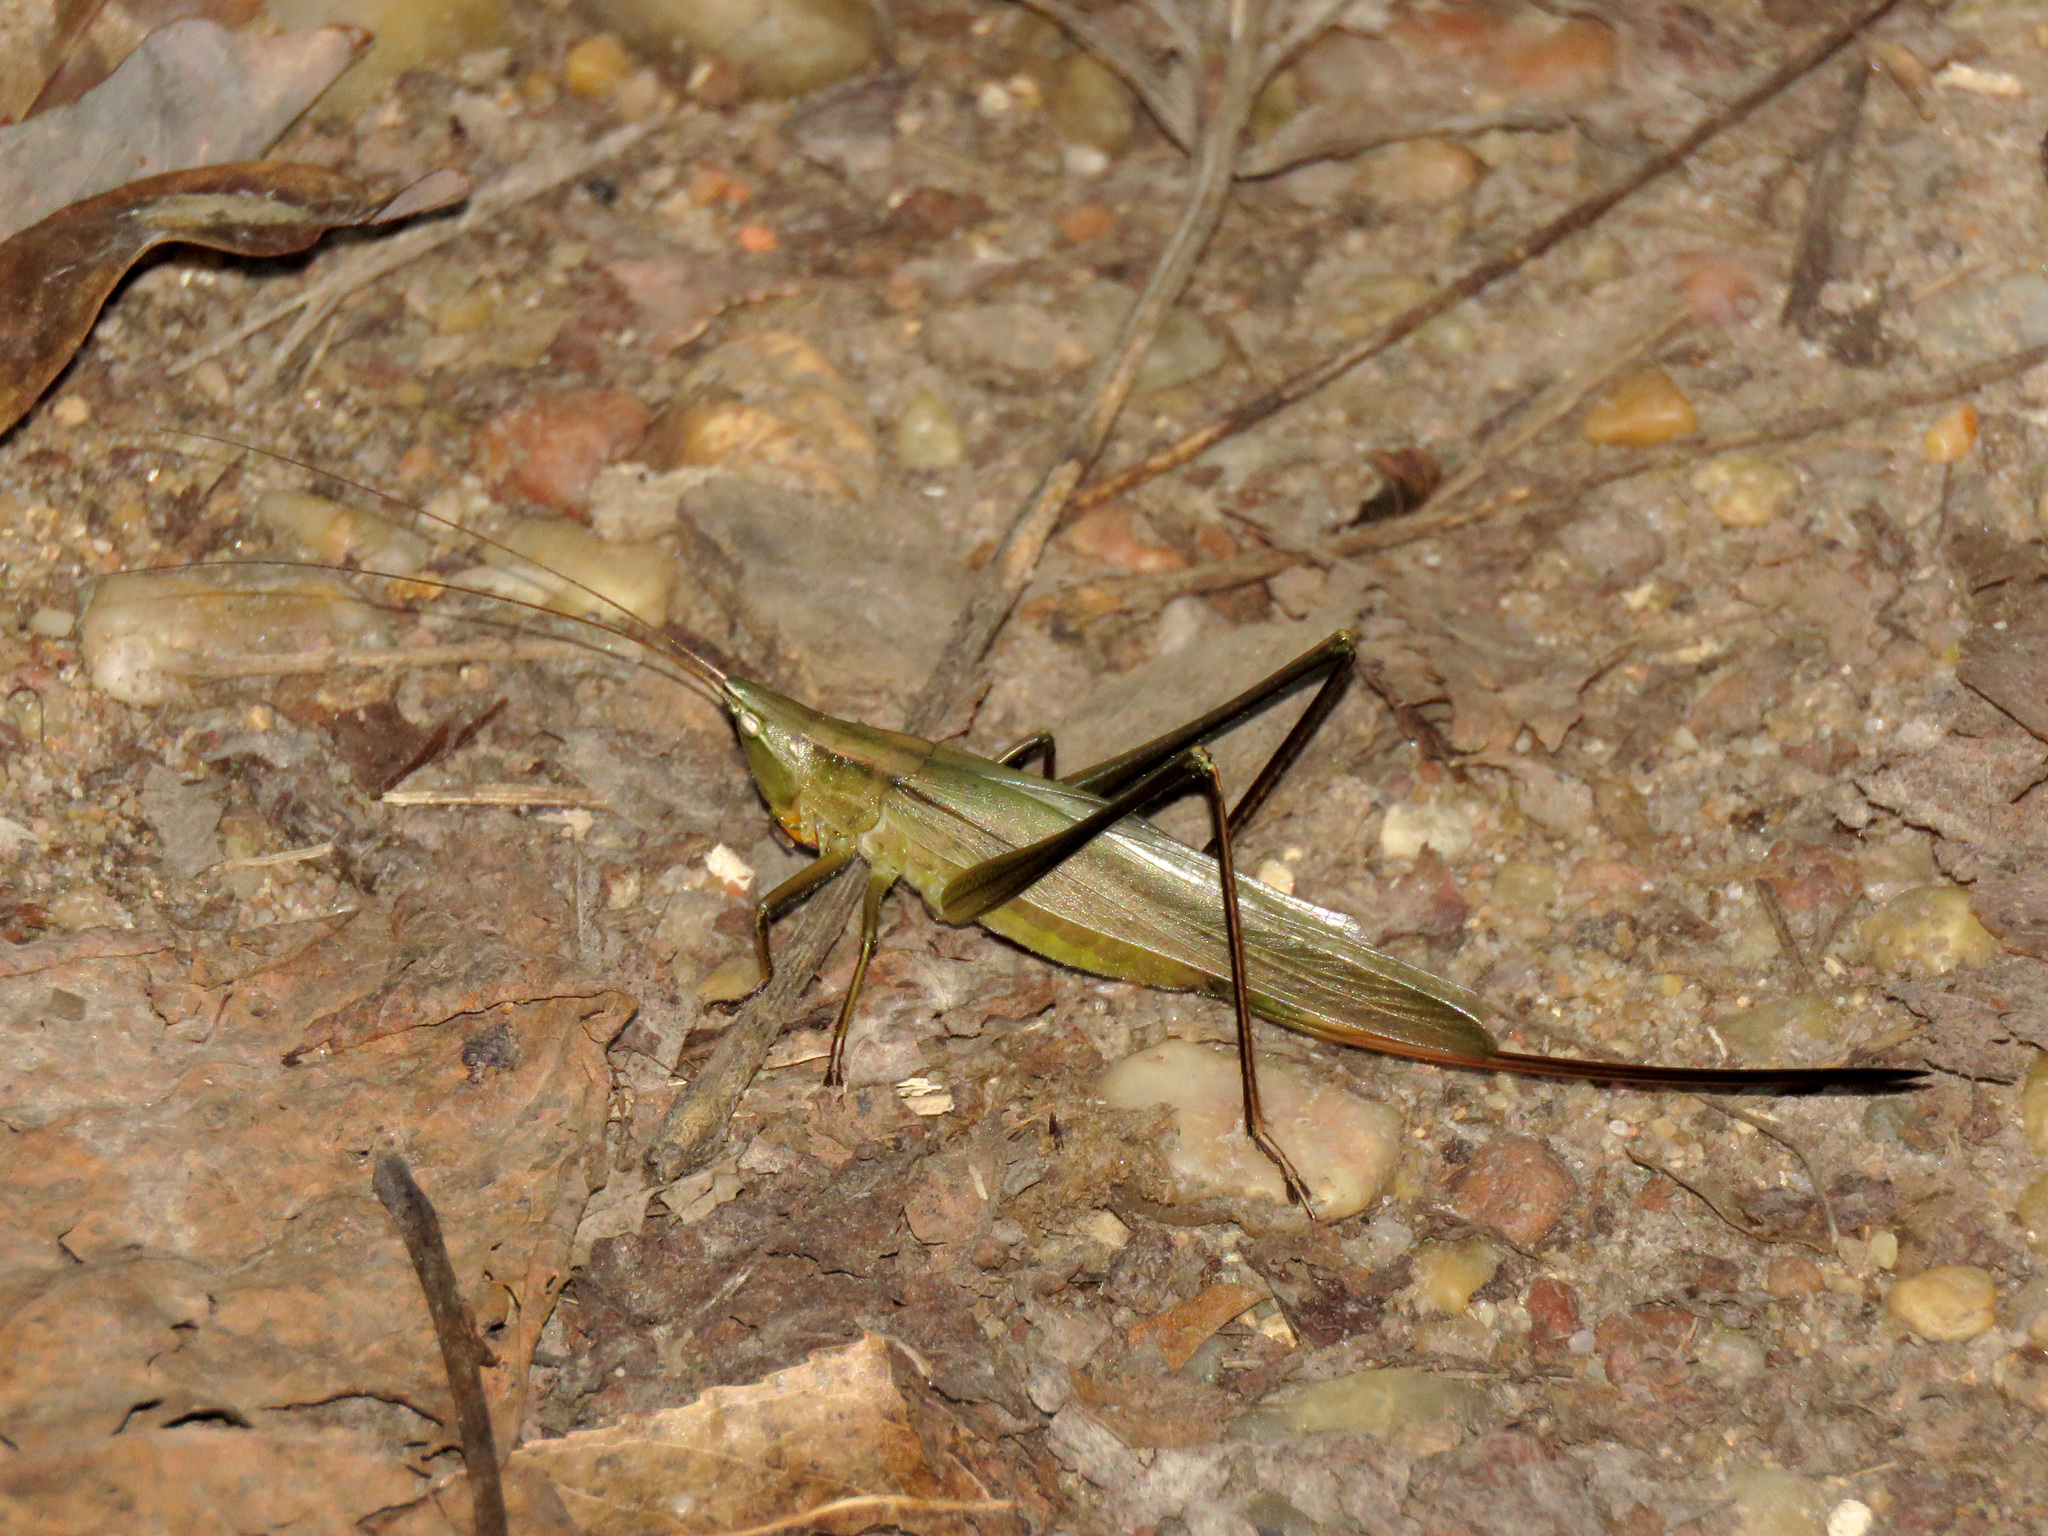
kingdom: Animalia
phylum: Arthropoda
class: Insecta
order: Orthoptera
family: Tettigoniidae
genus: Neoconocephalus
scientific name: Neoconocephalus retusus
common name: Round-tipped conehead
